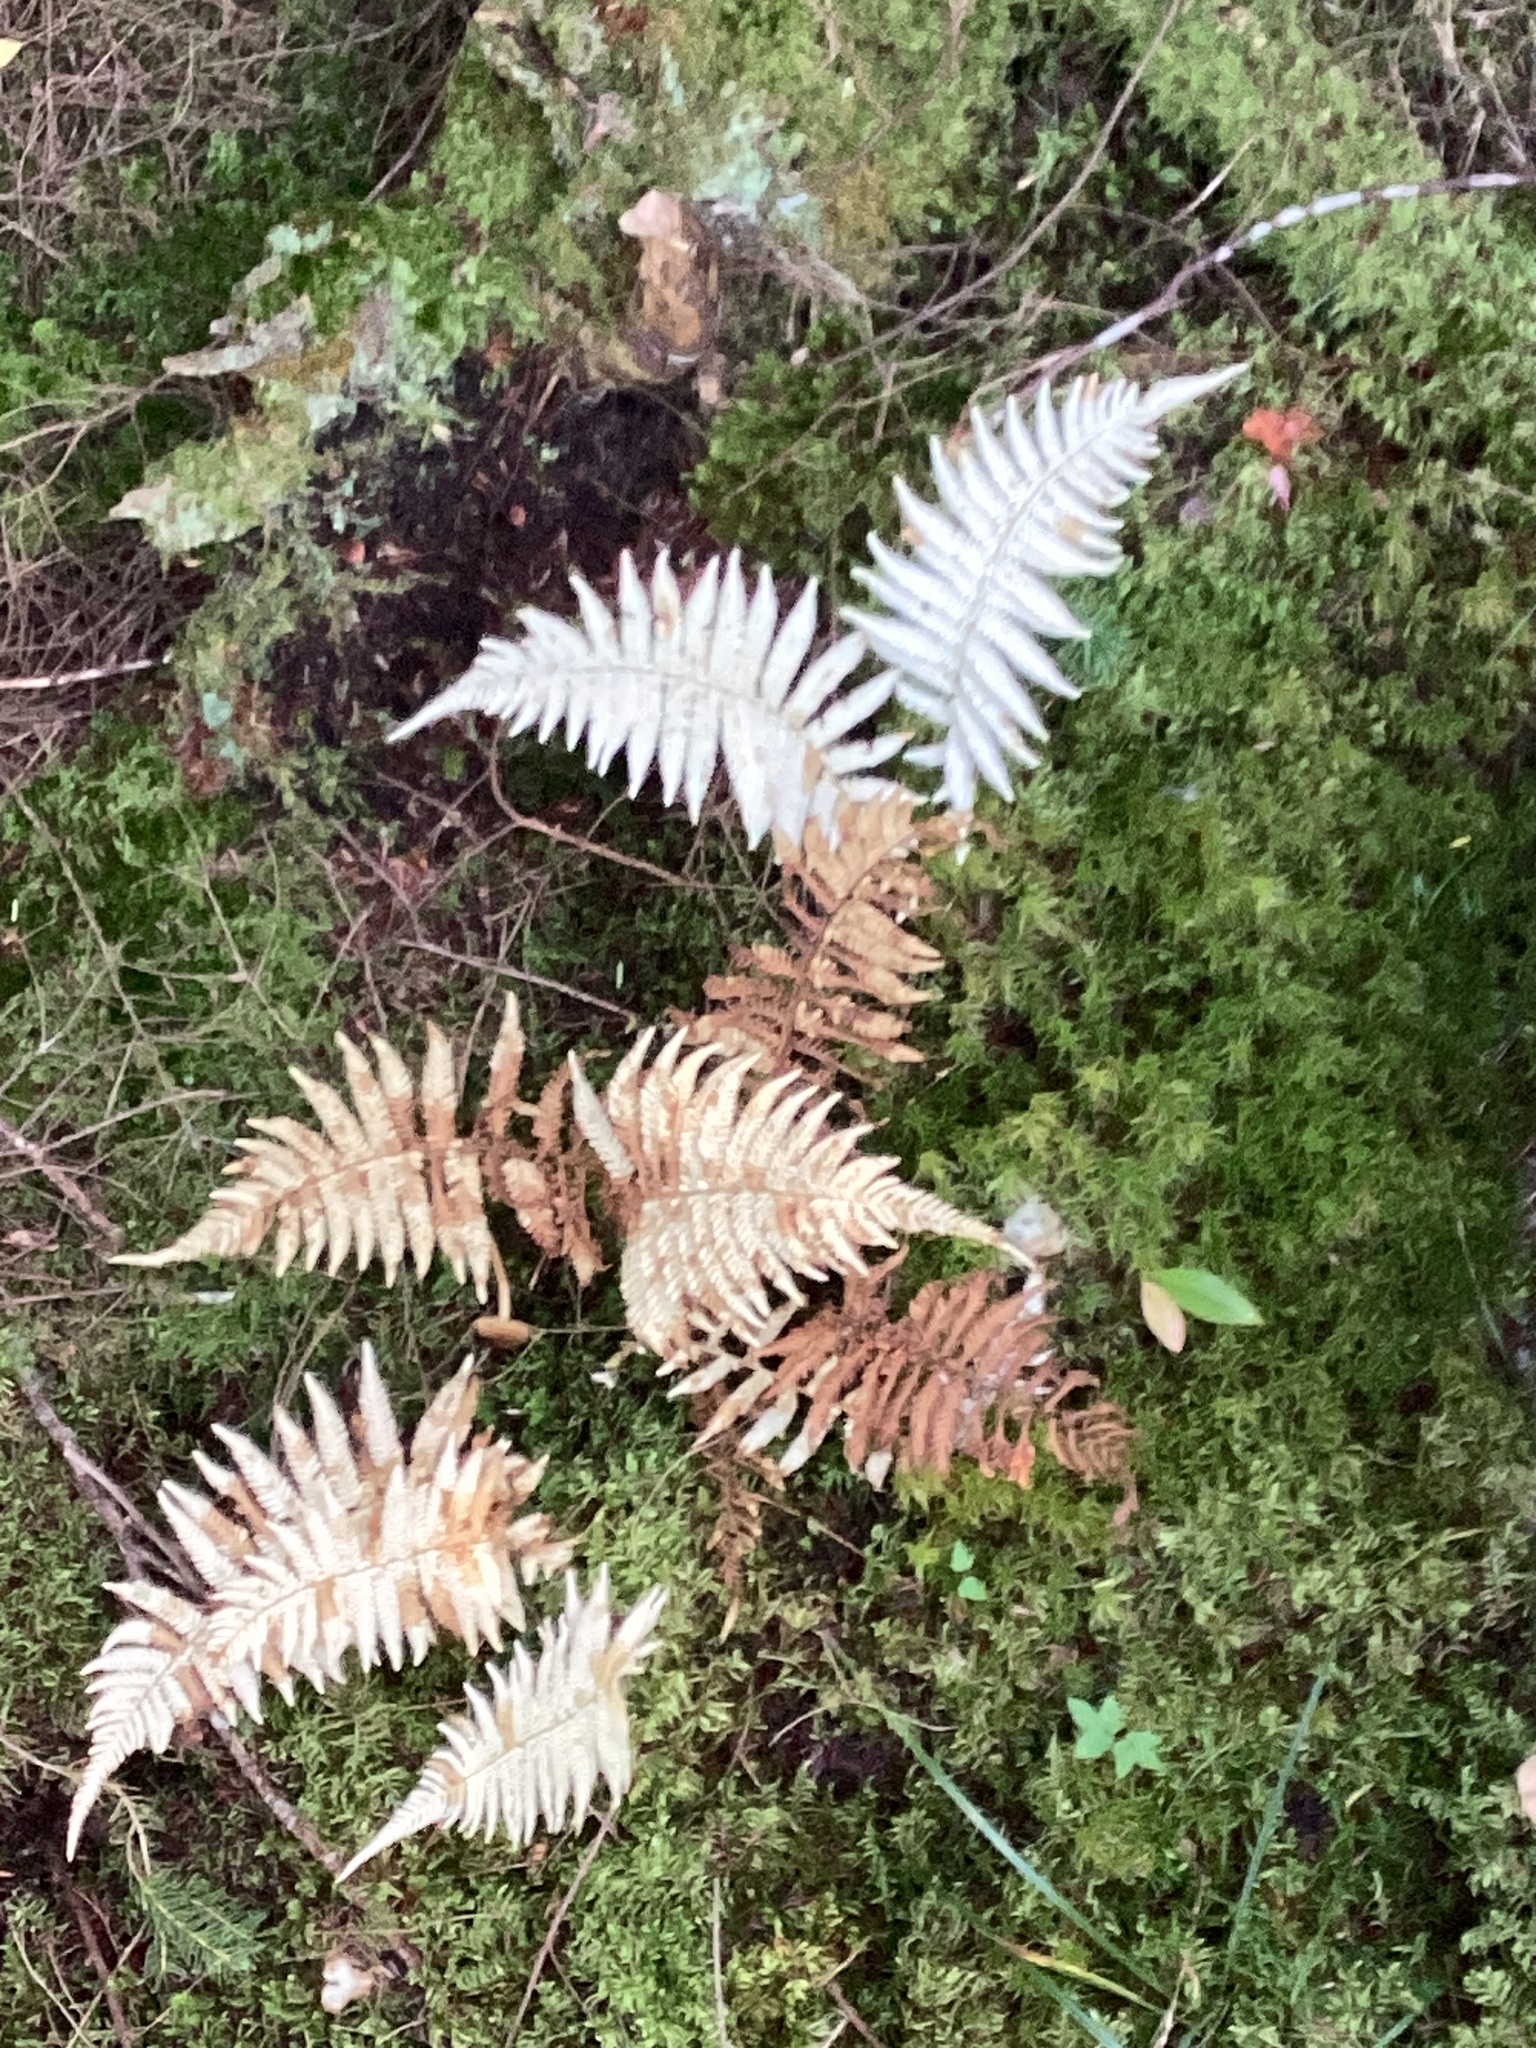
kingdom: Plantae
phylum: Tracheophyta
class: Polypodiopsida
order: Polypodiales
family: Thelypteridaceae
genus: Amauropelta
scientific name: Amauropelta noveboracensis
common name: New york fern
